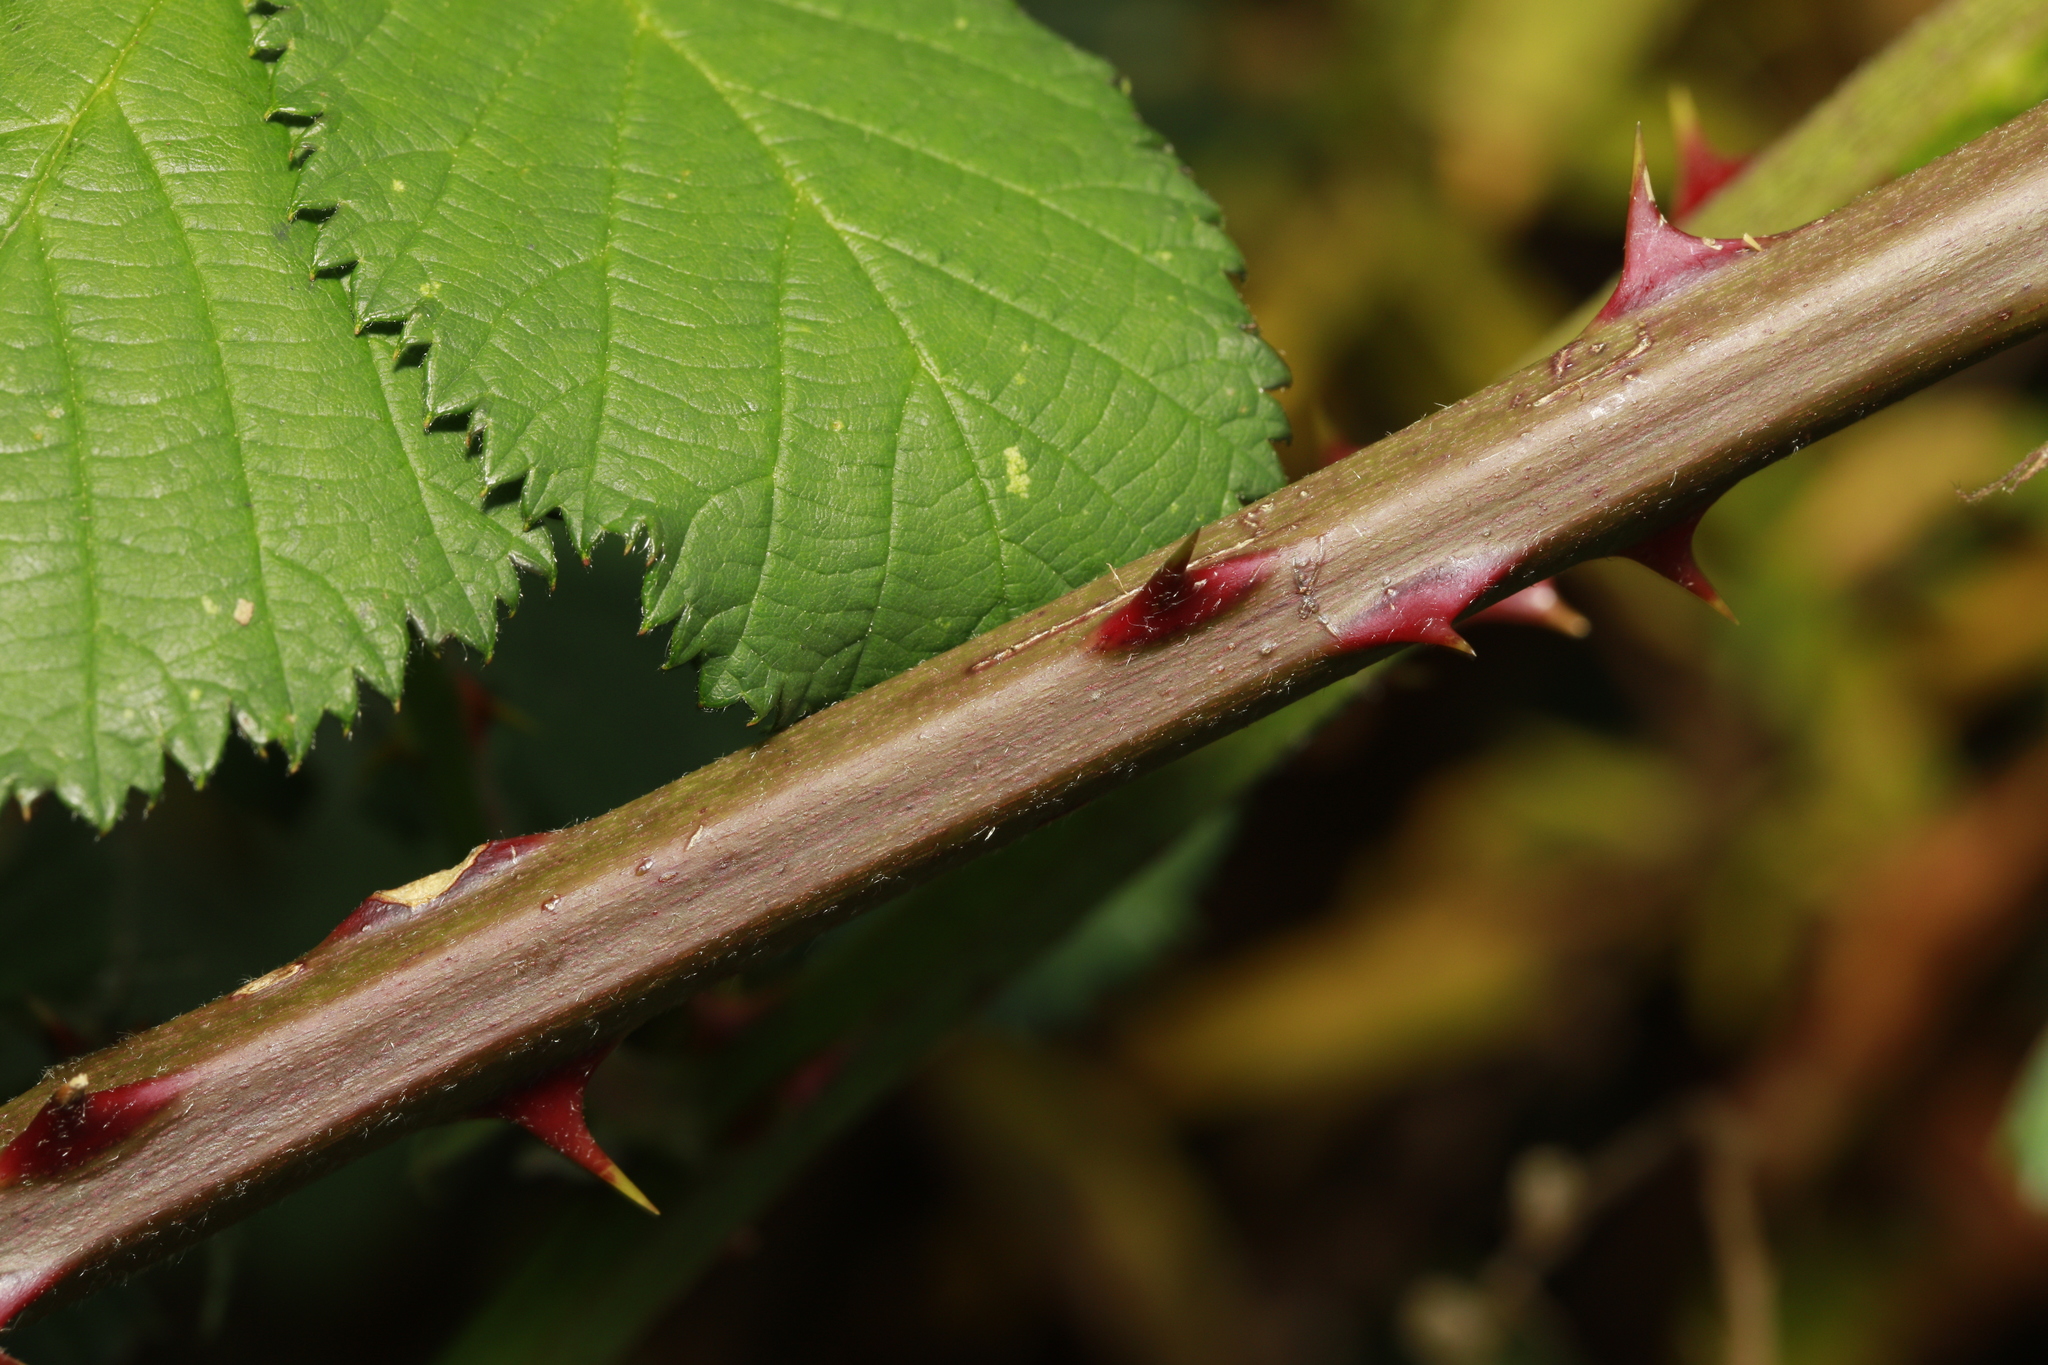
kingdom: Plantae
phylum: Tracheophyta
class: Magnoliopsida
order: Rosales
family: Rosaceae
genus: Rubus
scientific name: Rubus armeniacus
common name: Himalayan blackberry
